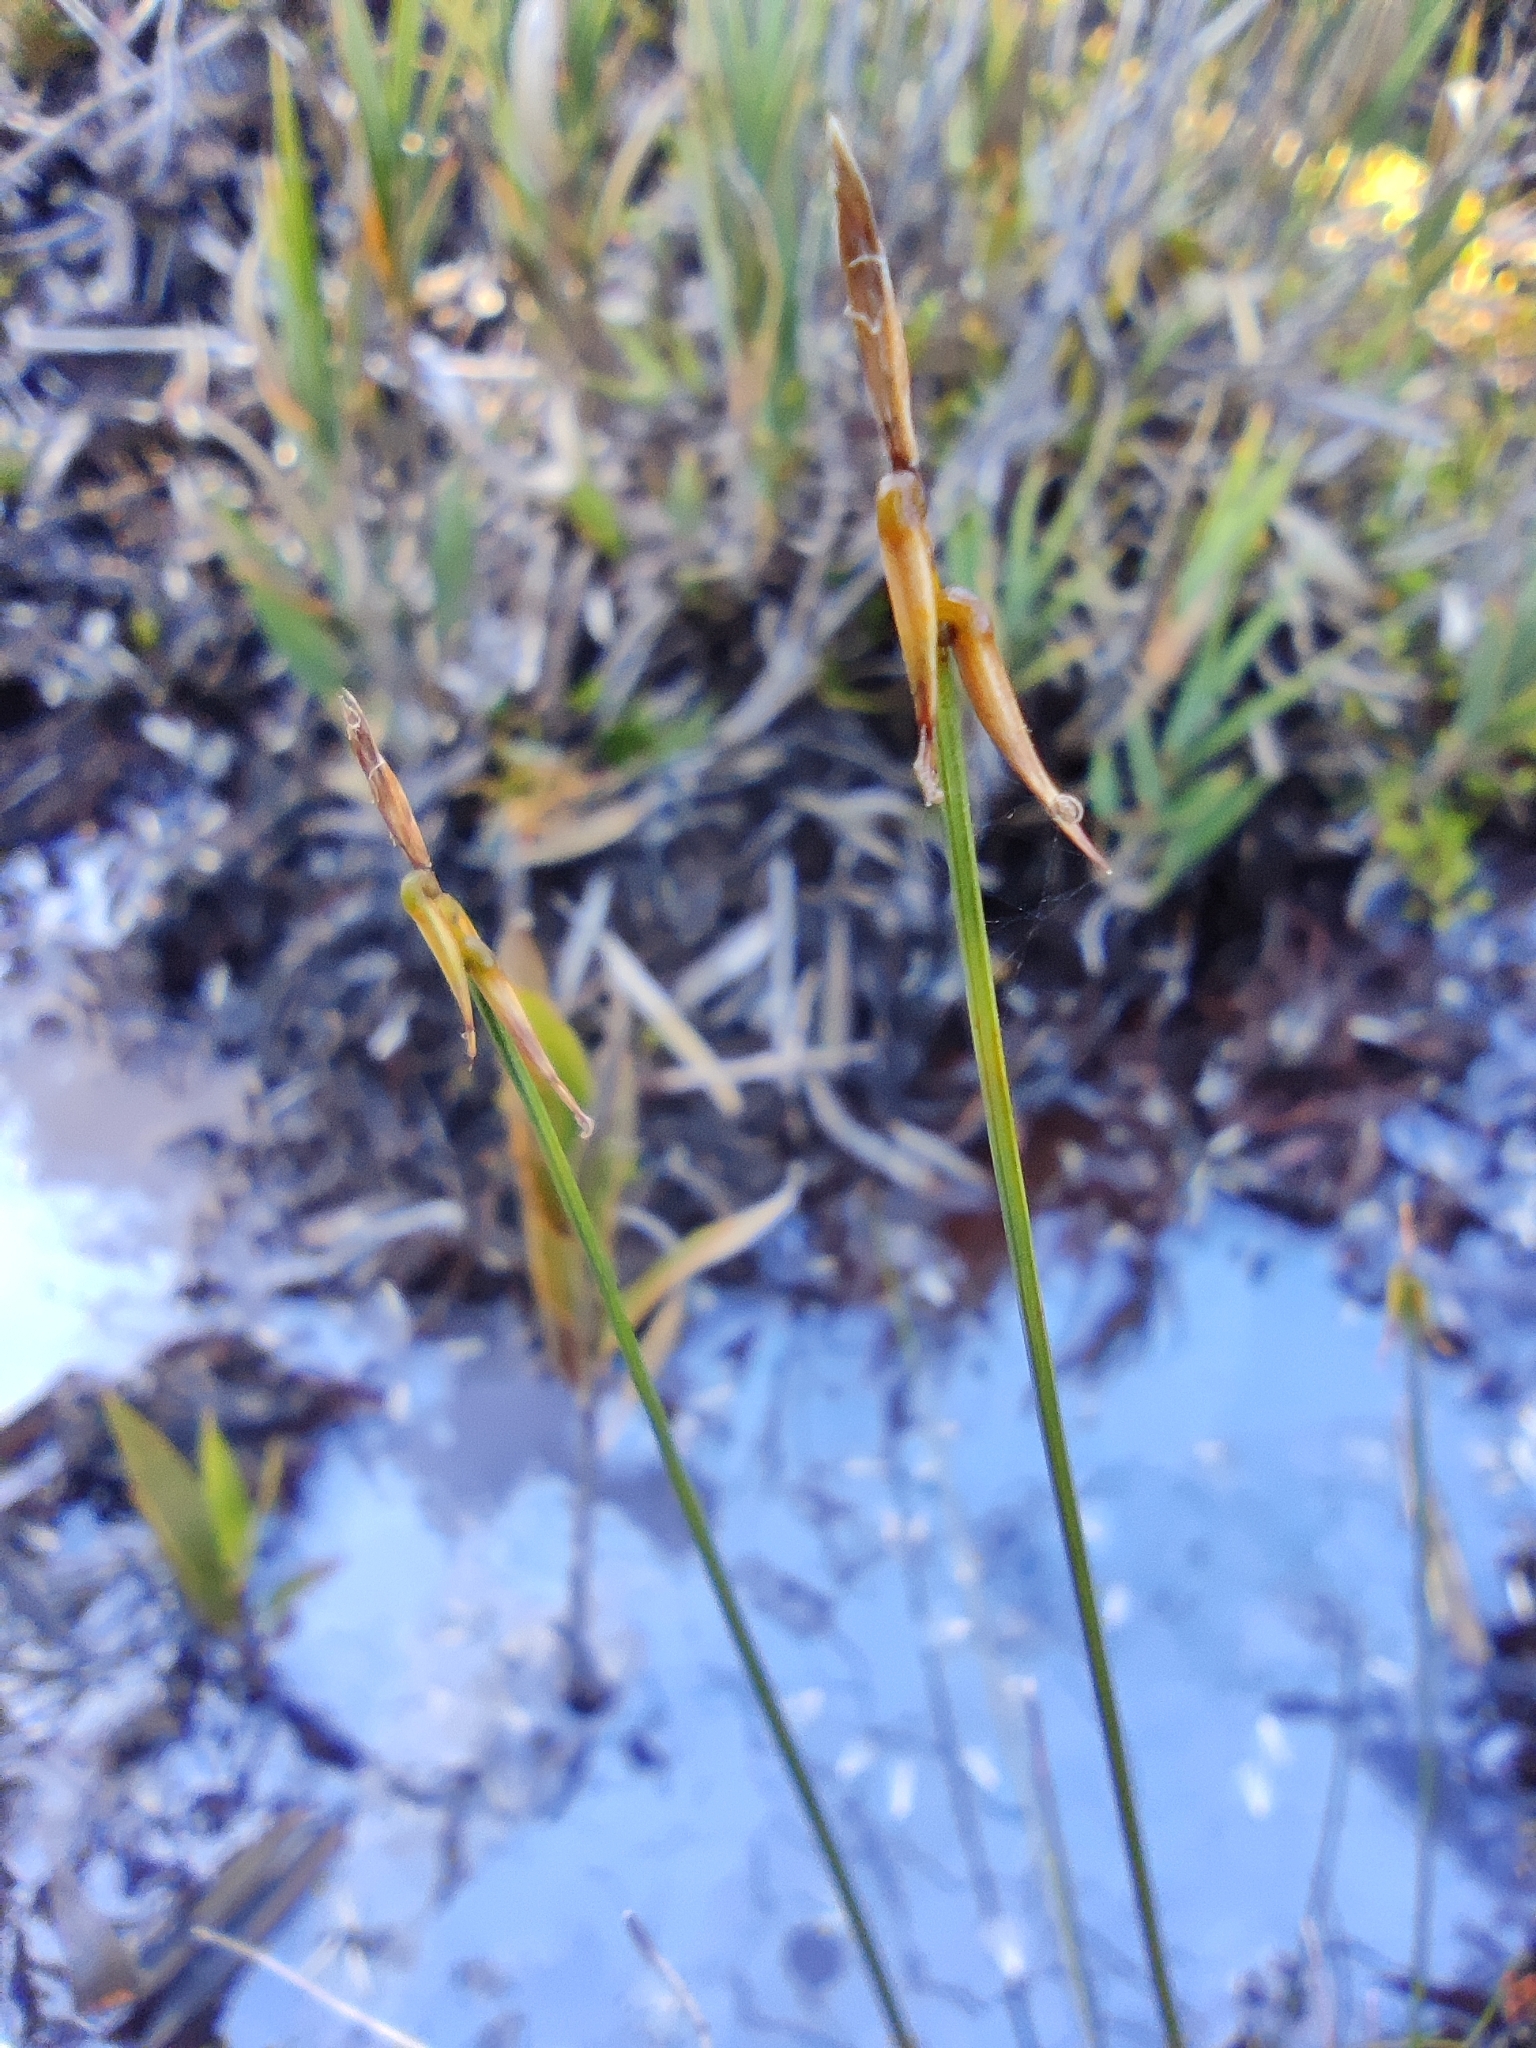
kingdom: Plantae
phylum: Tracheophyta
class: Liliopsida
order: Poales
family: Cyperaceae
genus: Carex
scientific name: Carex camptoglochin
